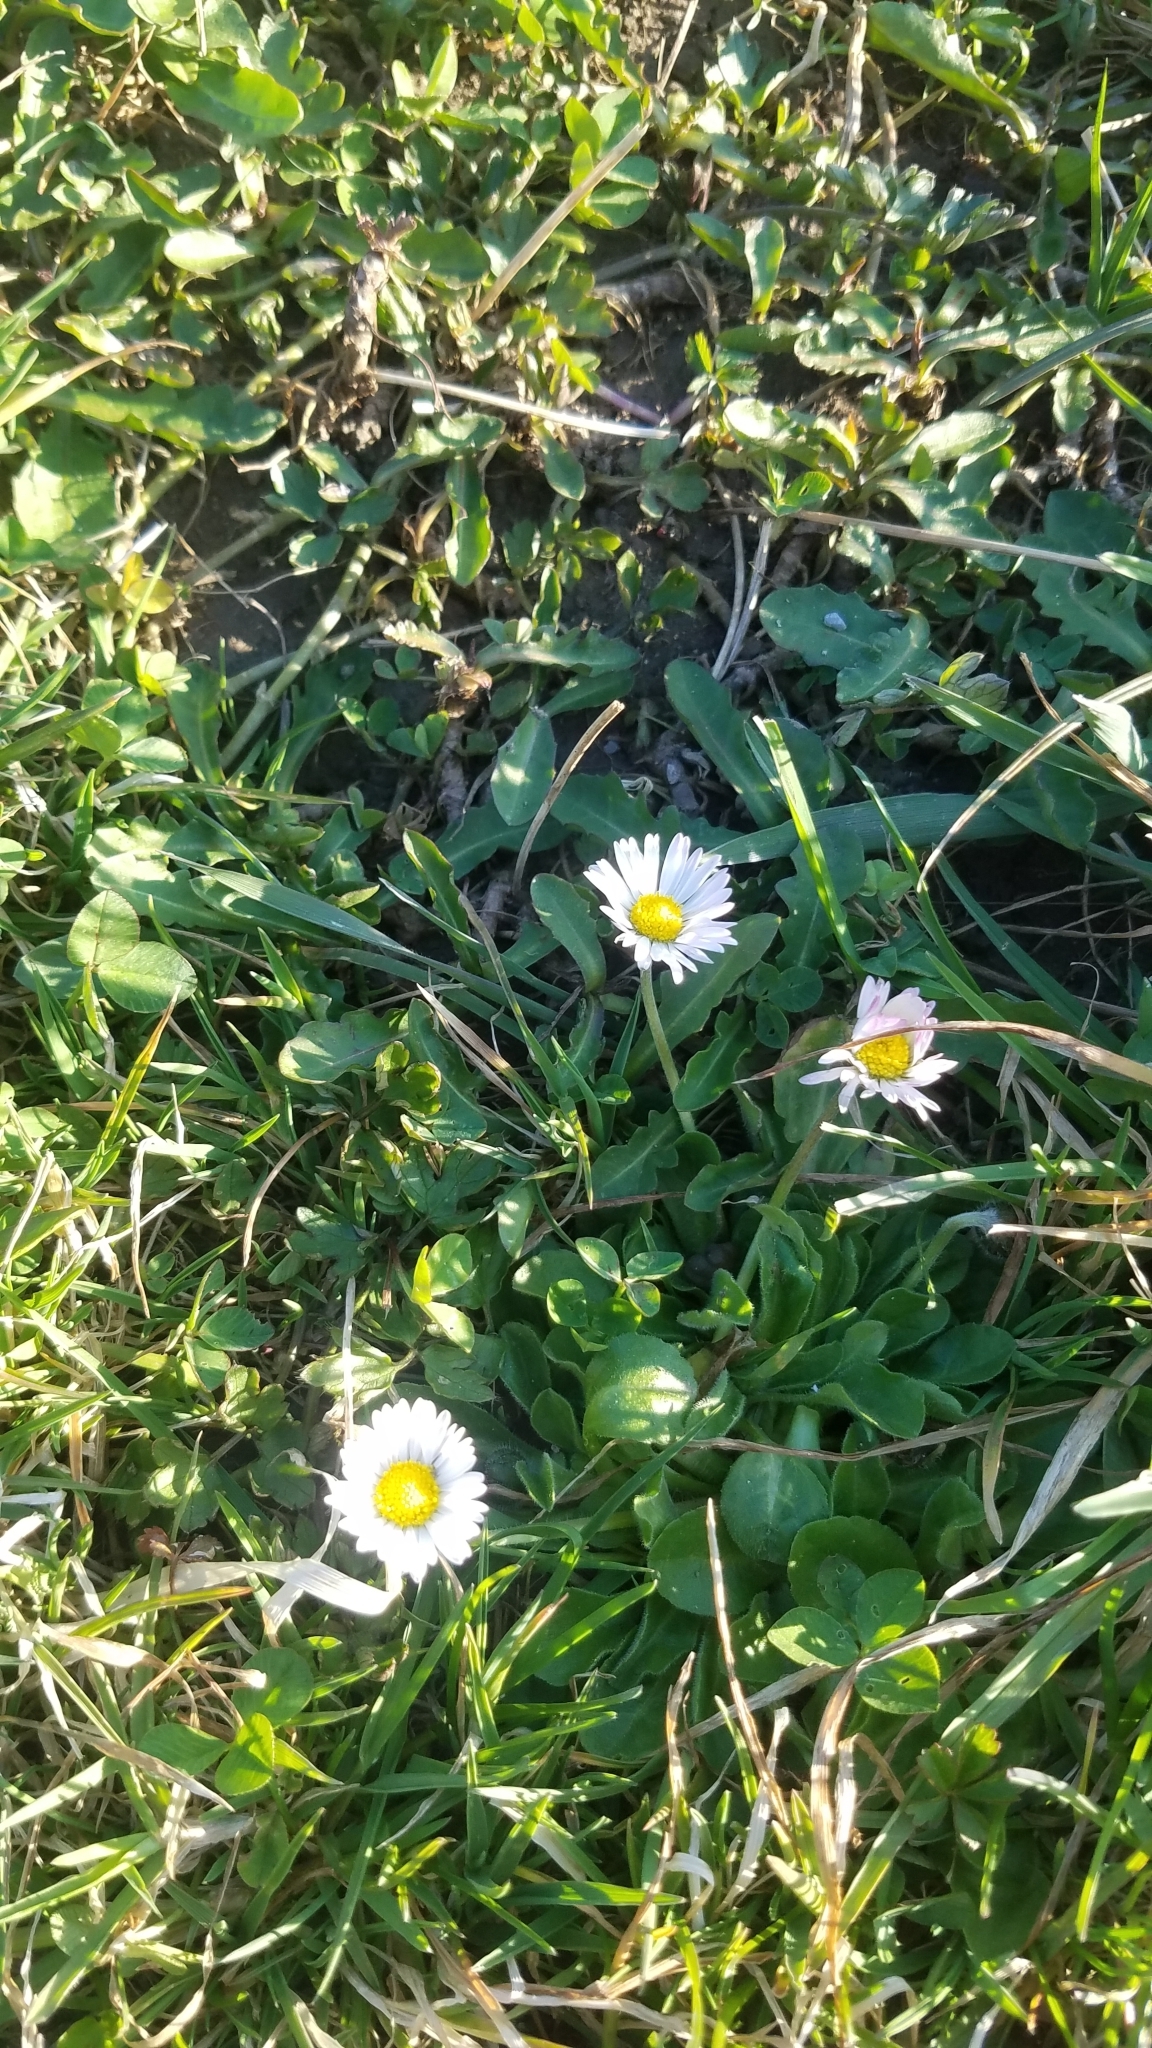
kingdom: Plantae
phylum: Tracheophyta
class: Magnoliopsida
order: Asterales
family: Asteraceae
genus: Bellis
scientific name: Bellis perennis
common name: Lawndaisy
